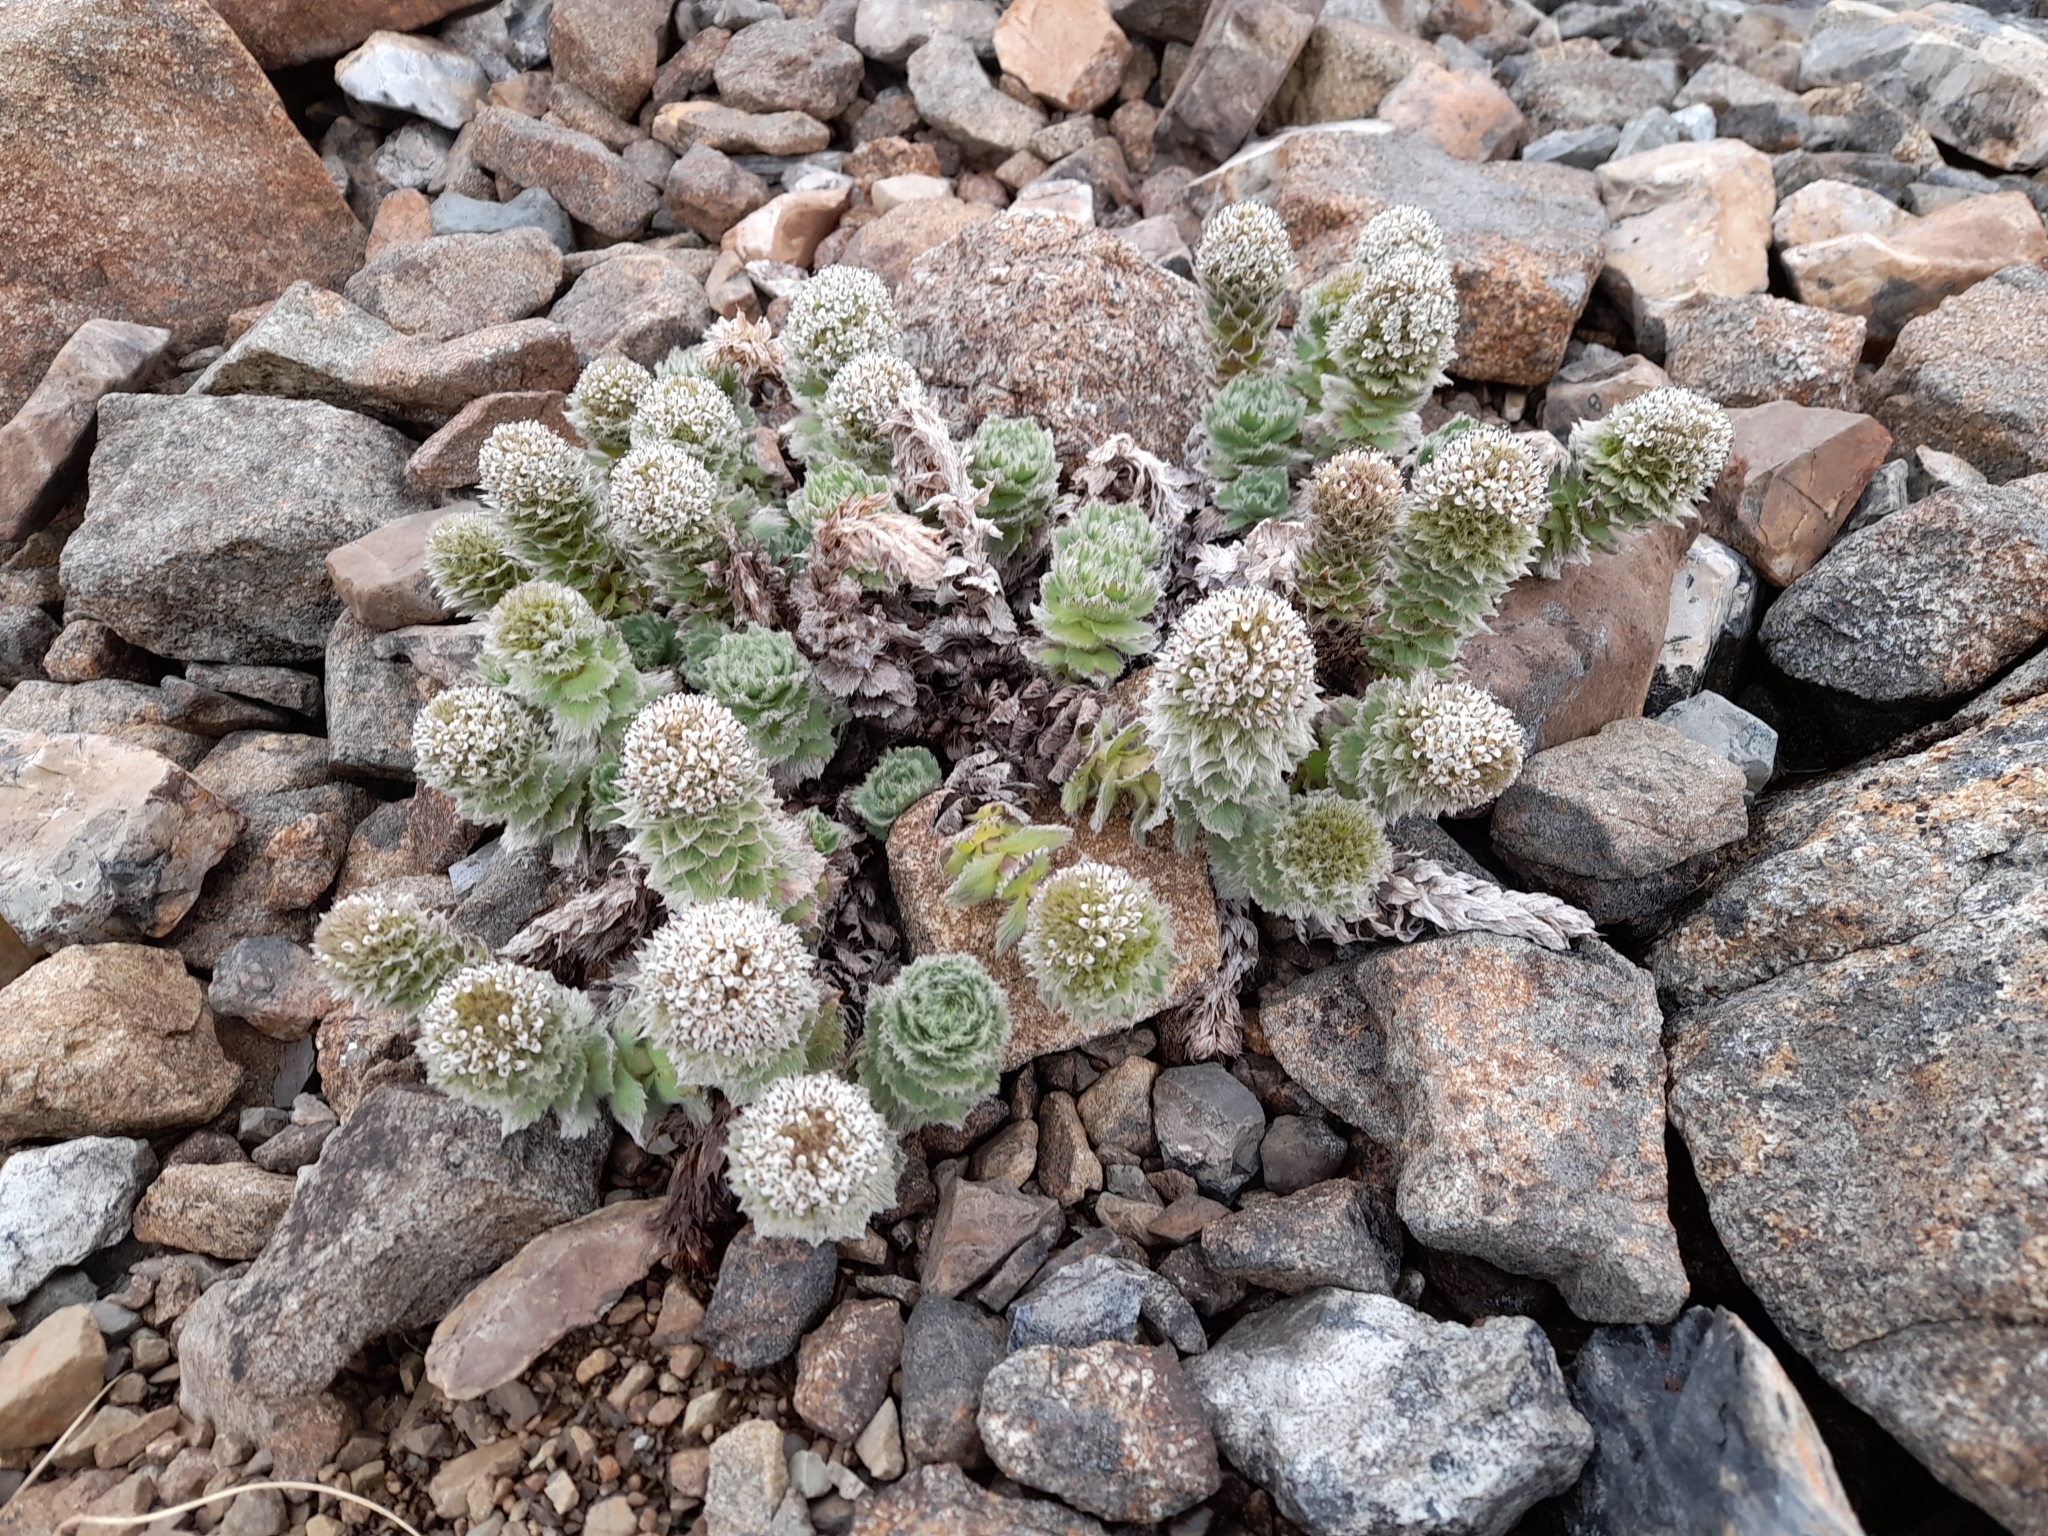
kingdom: Plantae
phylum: Tracheophyta
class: Magnoliopsida
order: Asterales
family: Asteraceae
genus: Nassauvia
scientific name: Nassauvia latissima
